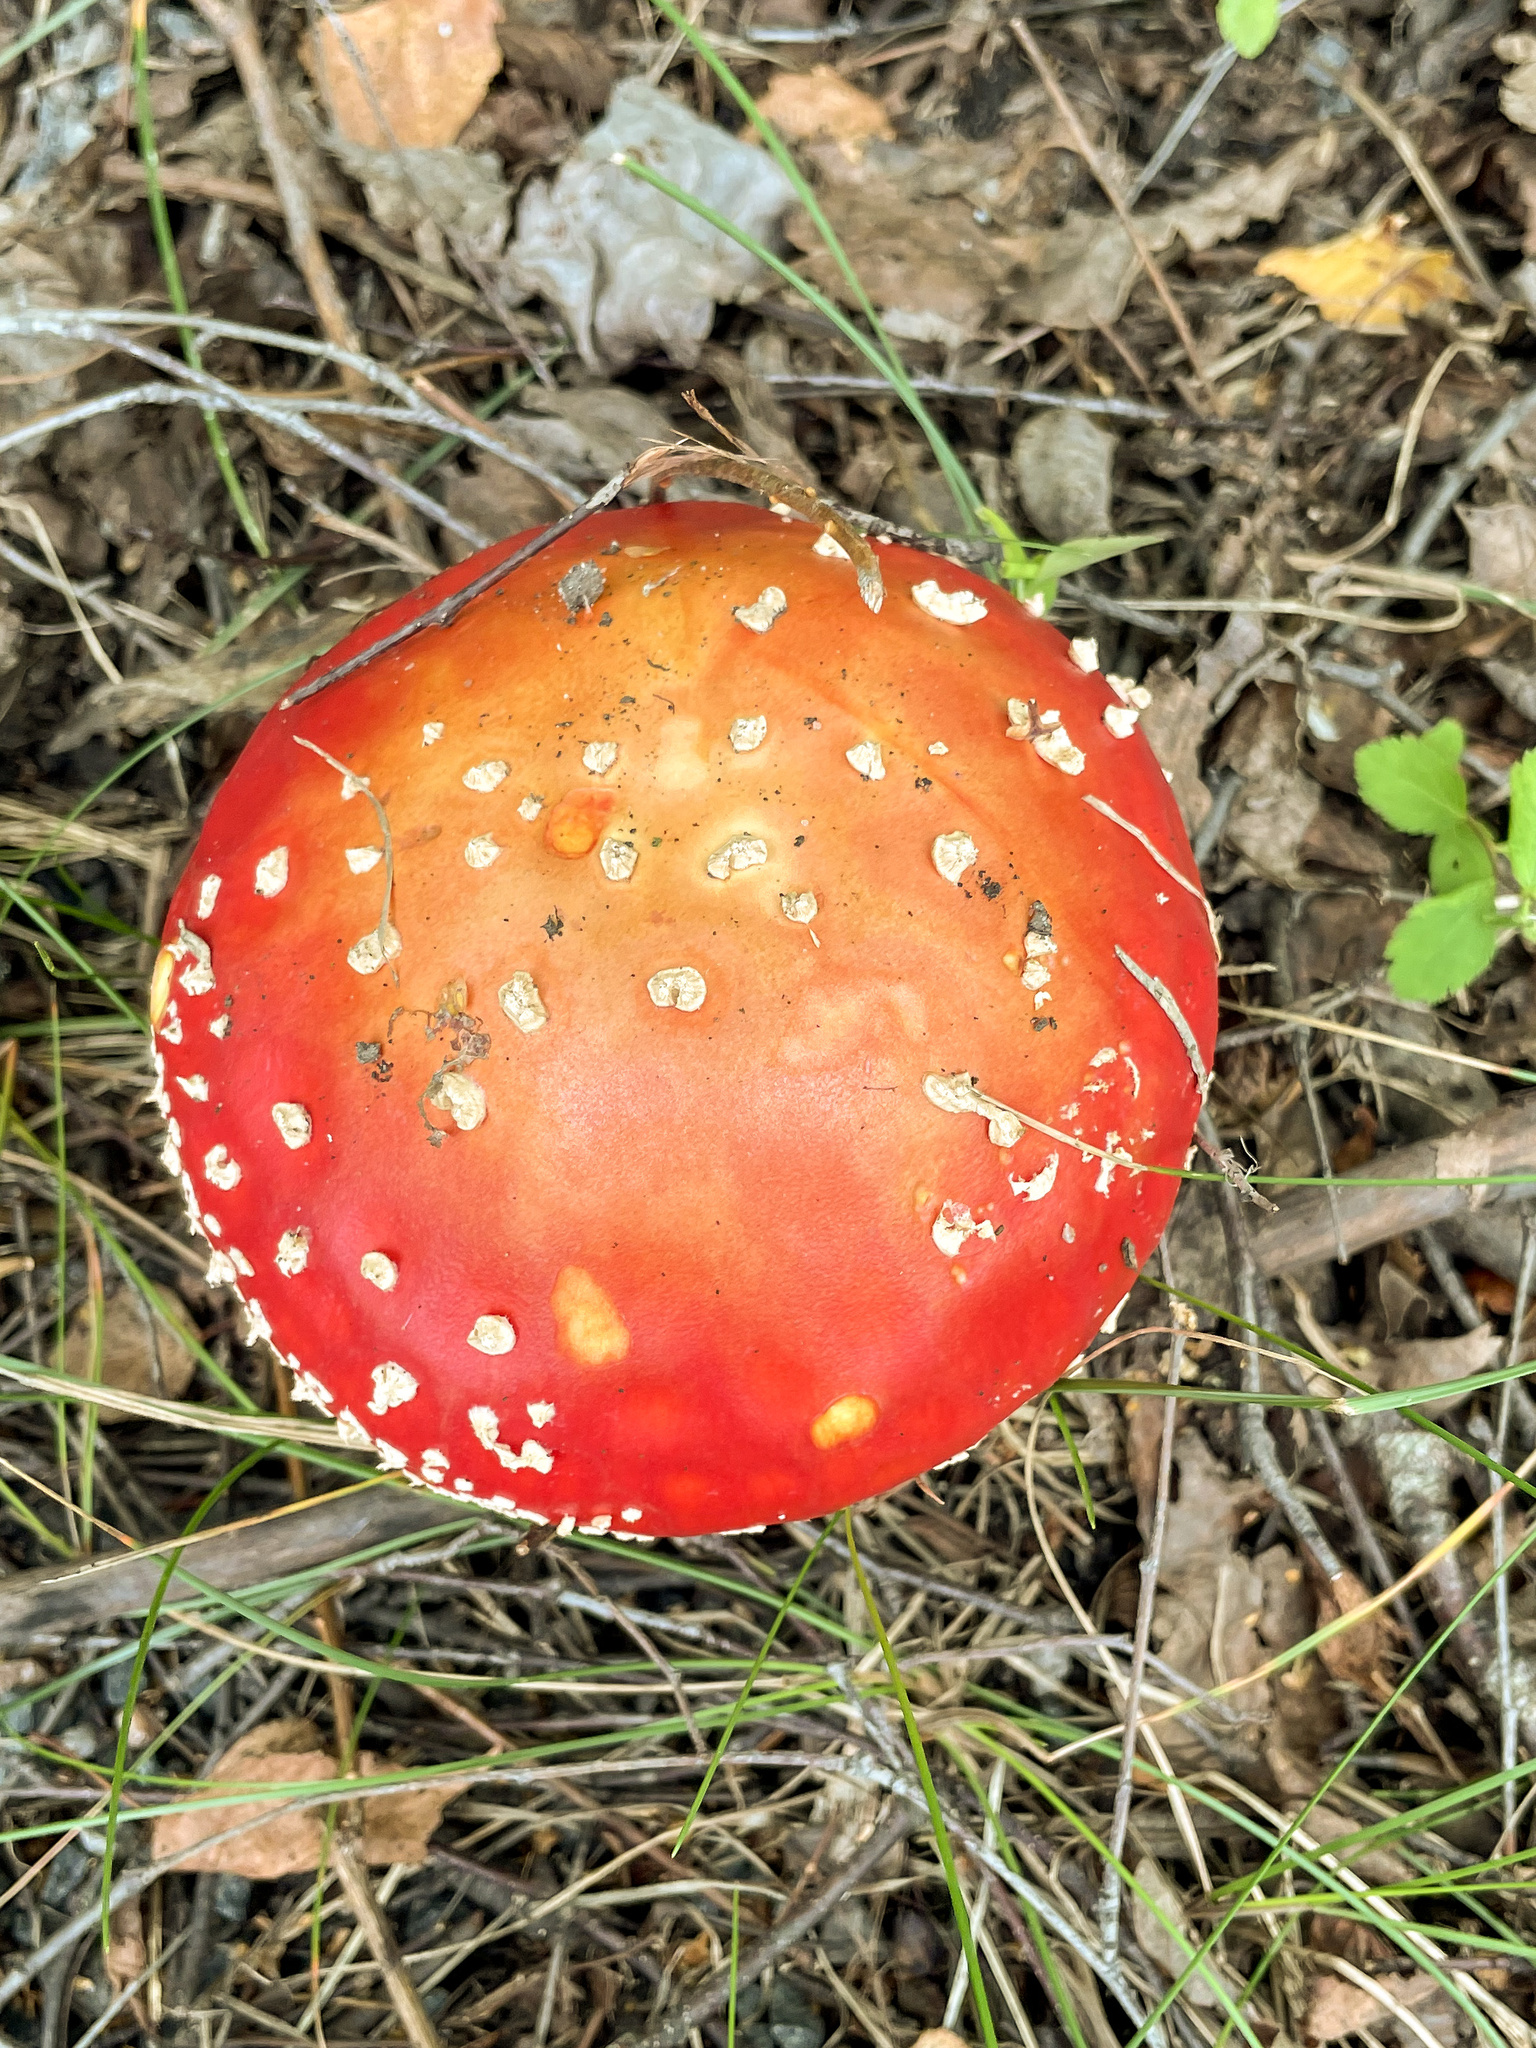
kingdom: Fungi
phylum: Basidiomycota
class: Agaricomycetes
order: Agaricales
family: Amanitaceae
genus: Amanita
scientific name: Amanita muscaria
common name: Fly agaric
